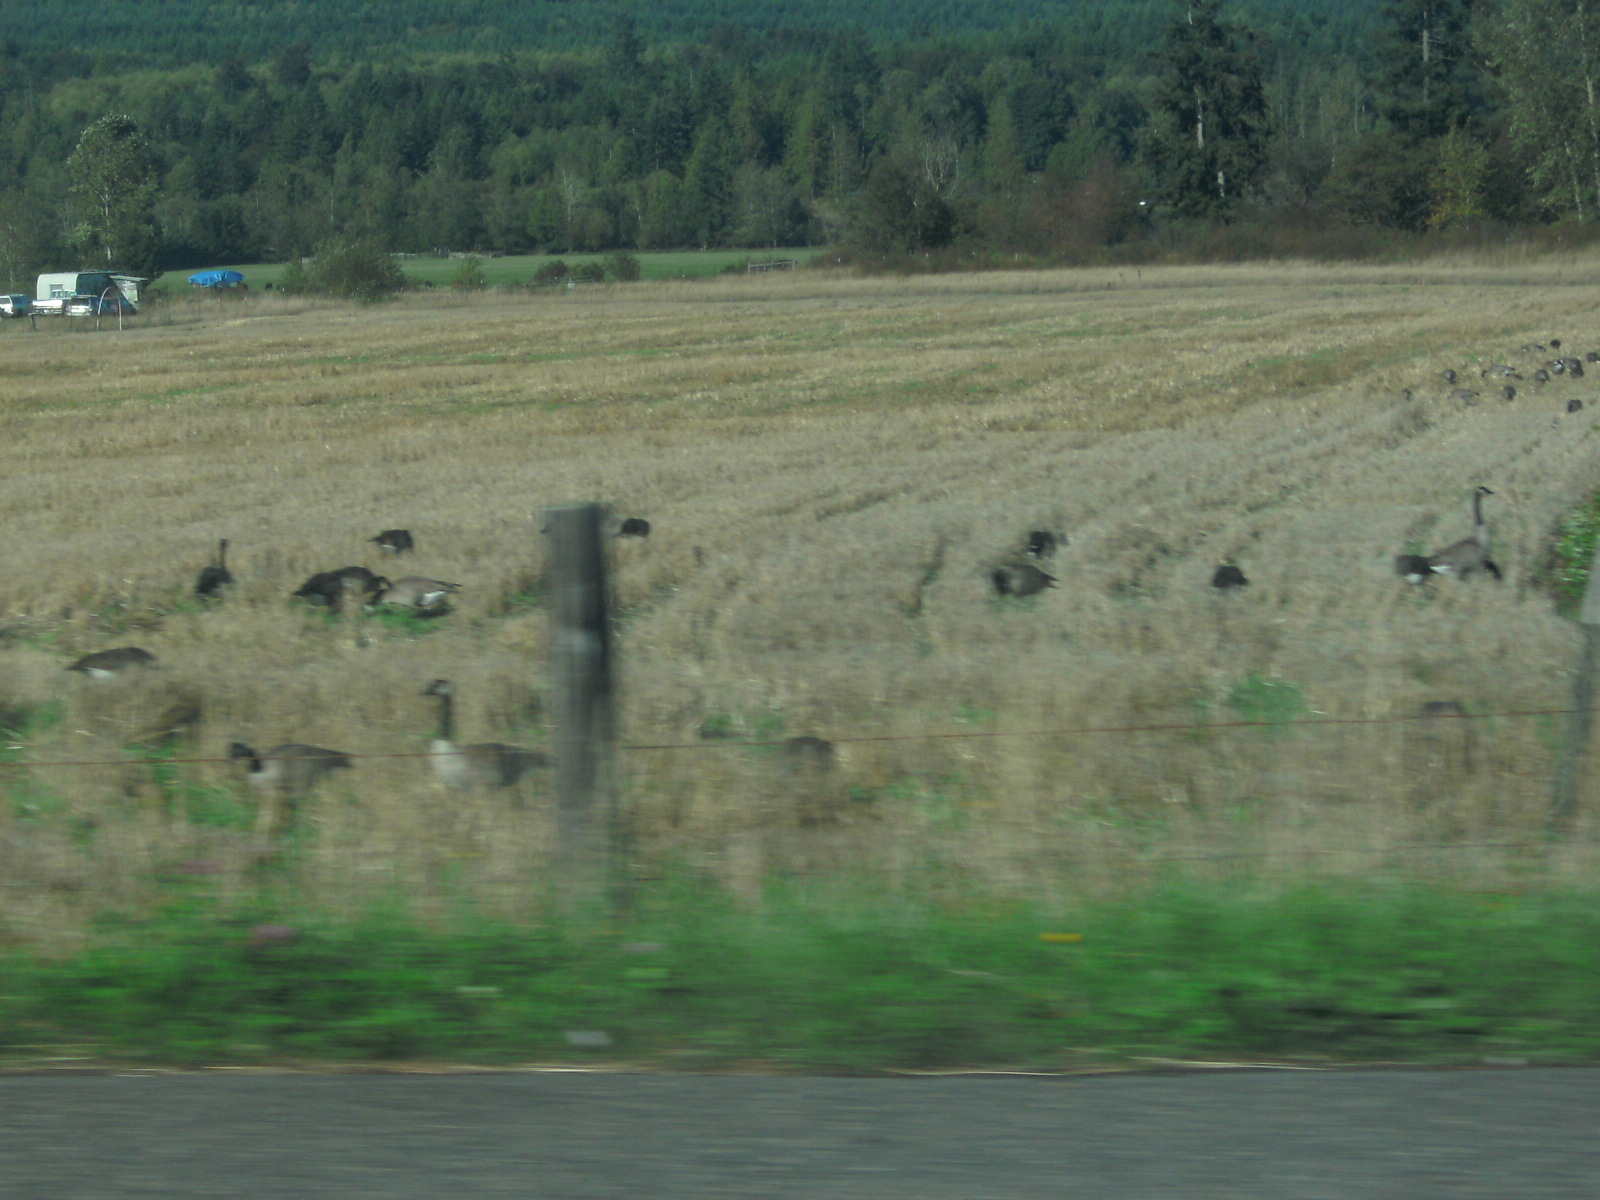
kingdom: Animalia
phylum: Chordata
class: Aves
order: Anseriformes
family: Anatidae
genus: Branta
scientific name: Branta canadensis
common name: Canada goose
